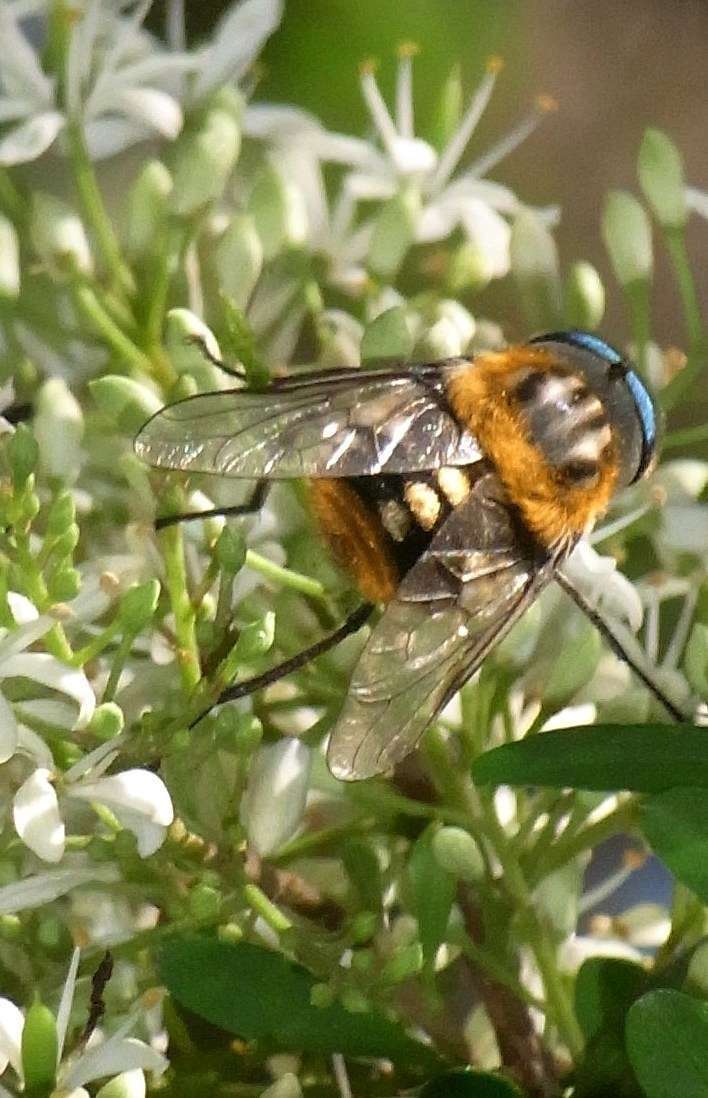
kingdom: Plantae
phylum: Tracheophyta
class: Magnoliopsida
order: Apiales
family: Pittosporaceae
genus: Bursaria
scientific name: Bursaria spinosa
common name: Australian blackthorn
